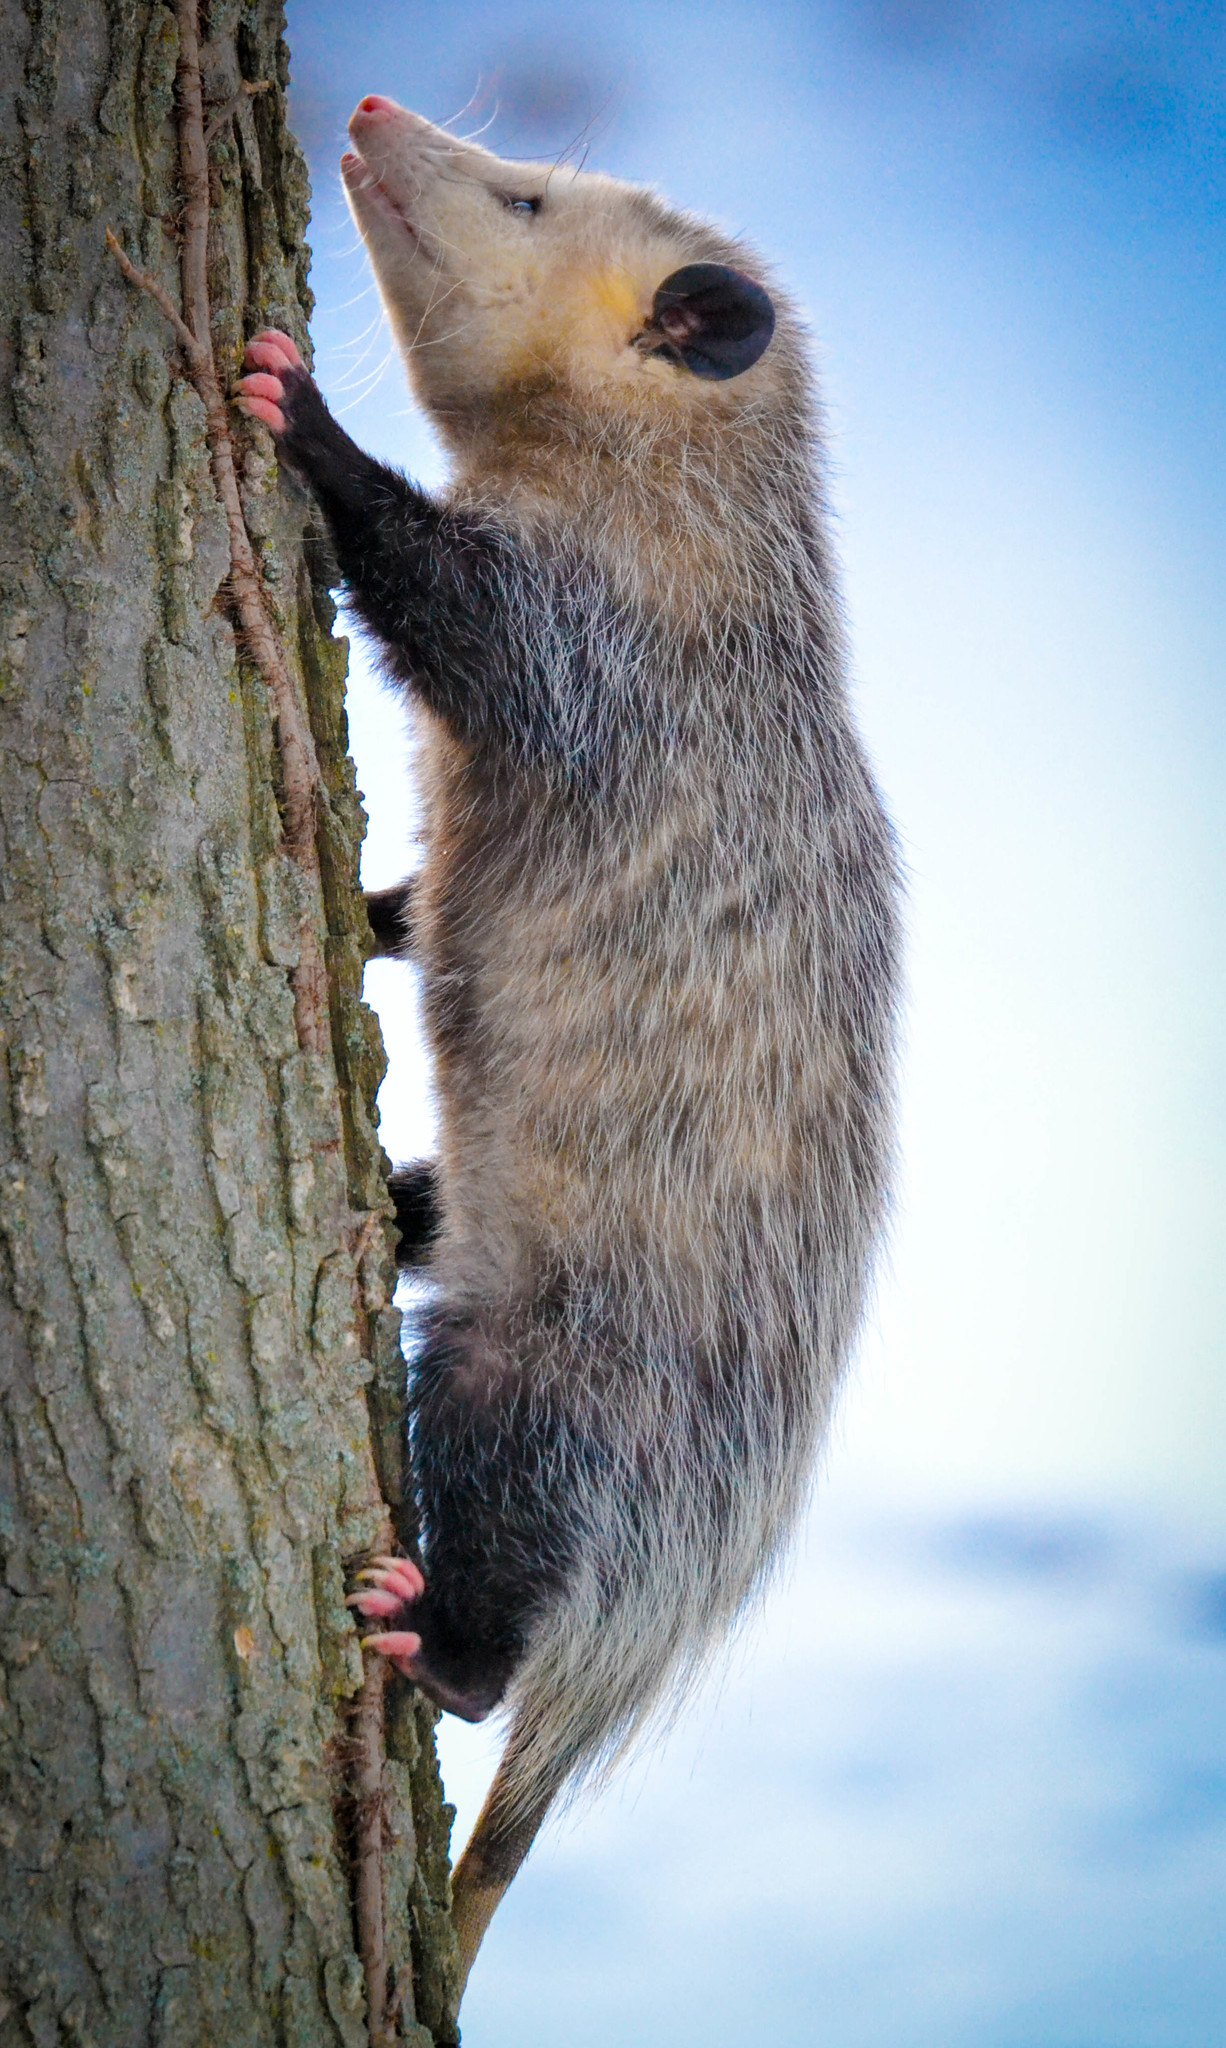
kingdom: Animalia
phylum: Chordata
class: Mammalia
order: Didelphimorphia
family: Didelphidae
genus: Didelphis
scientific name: Didelphis virginiana
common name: Virginia opossum
